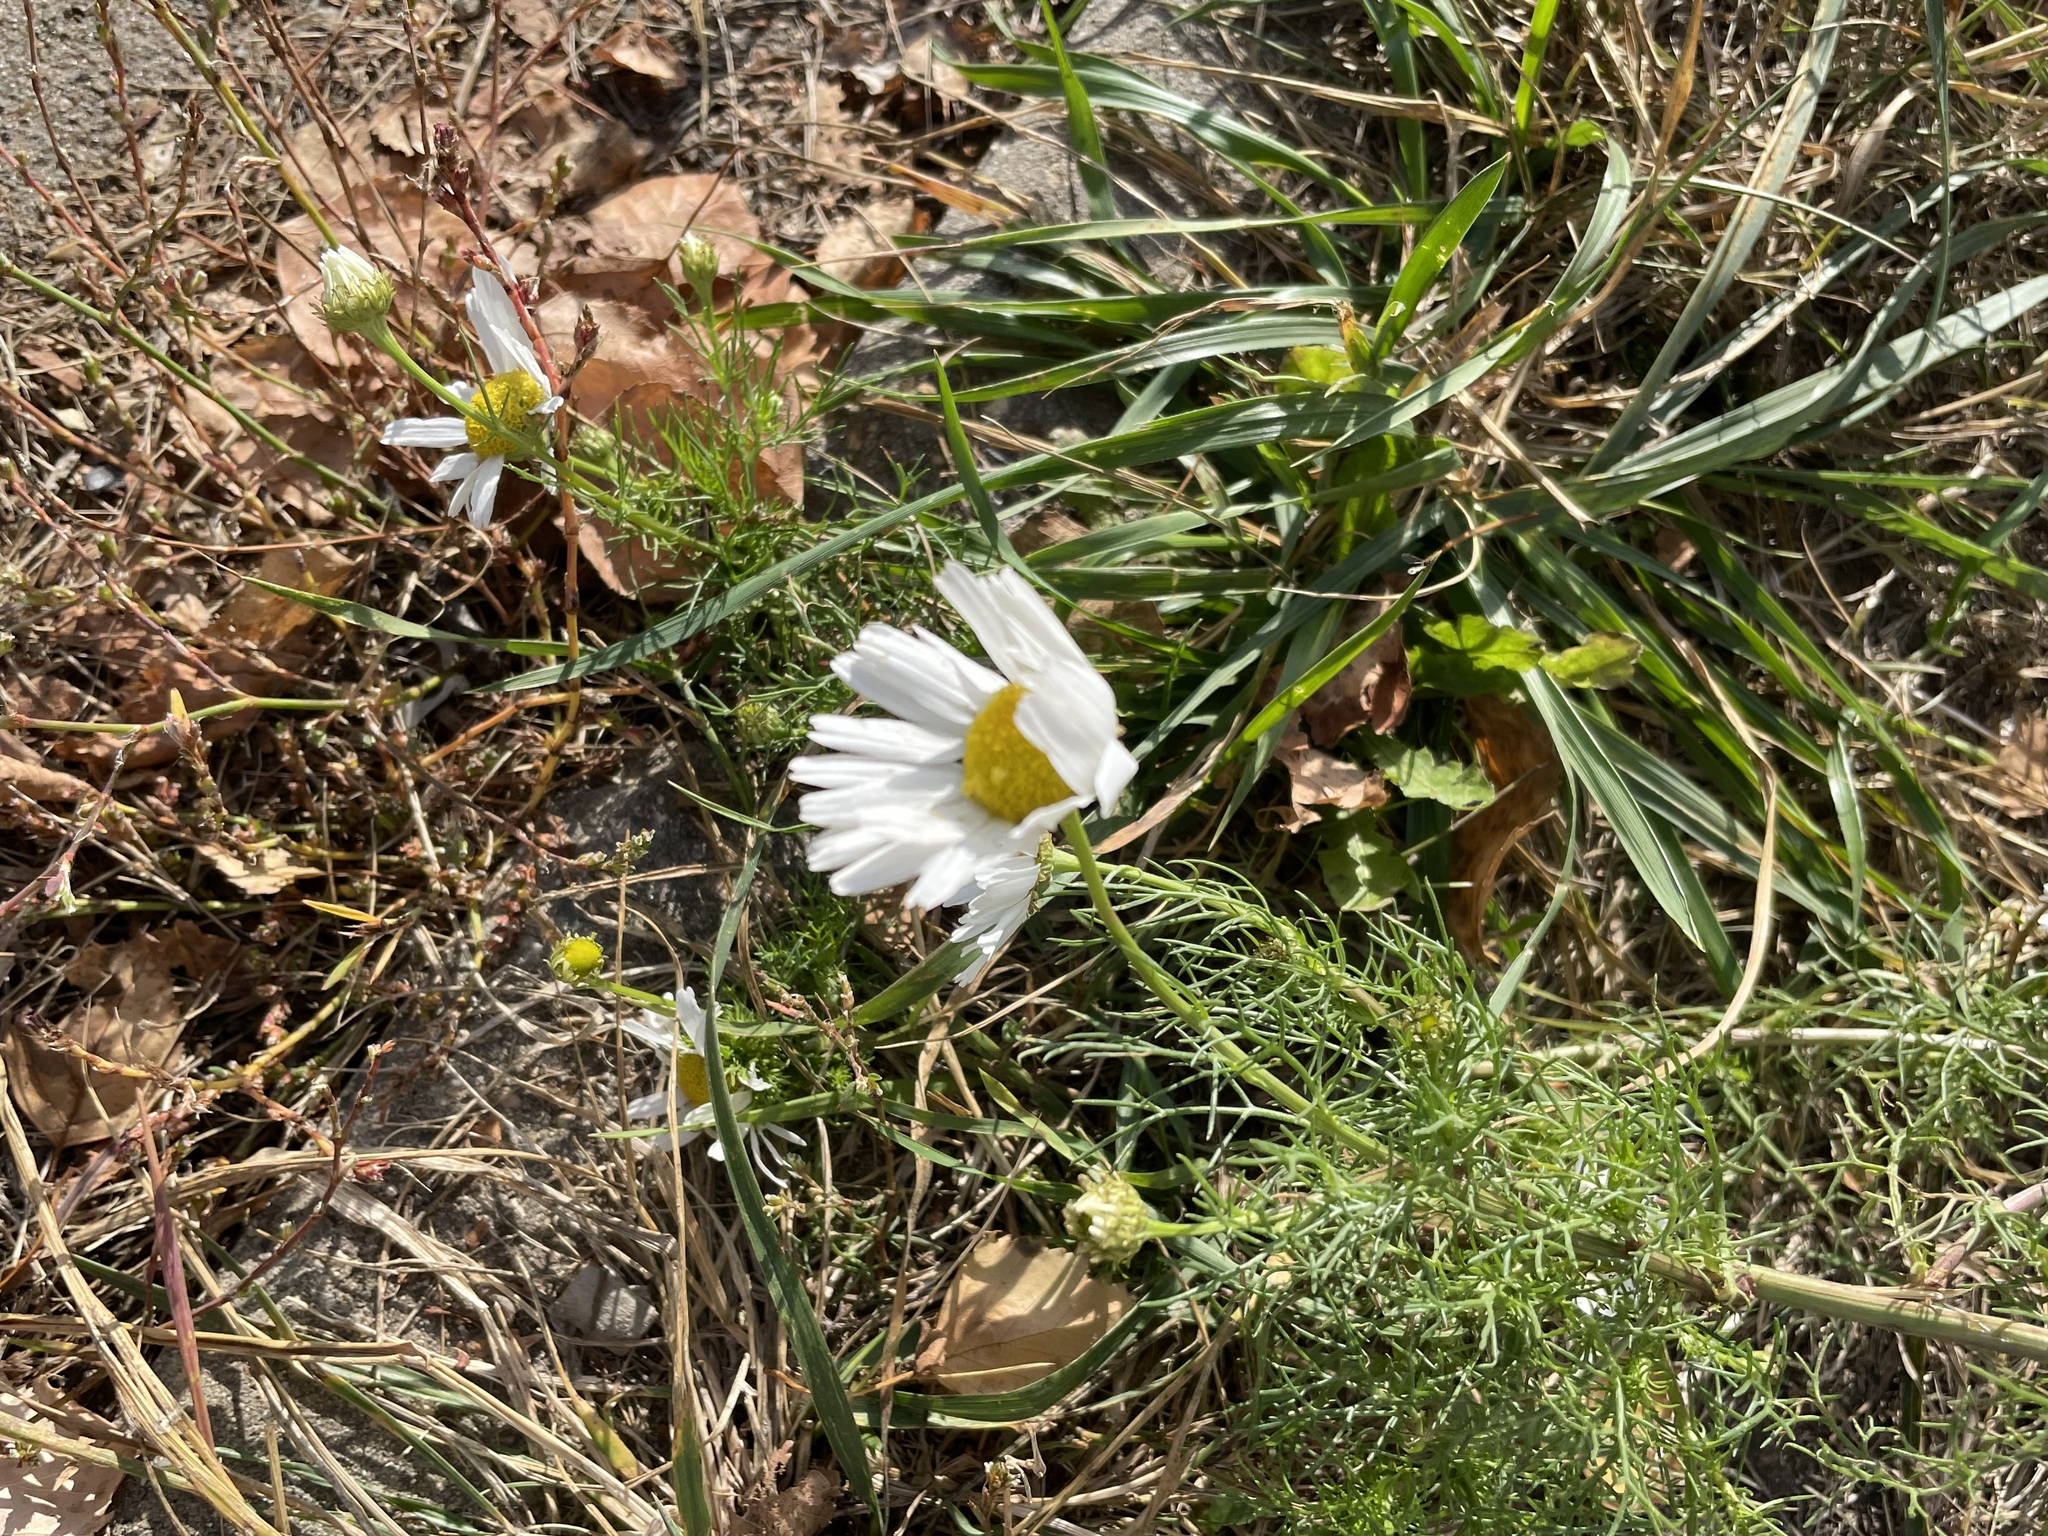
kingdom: Plantae
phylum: Tracheophyta
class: Magnoliopsida
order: Asterales
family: Asteraceae
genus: Tripleurospermum
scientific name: Tripleurospermum inodorum
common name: Scentless mayweed
